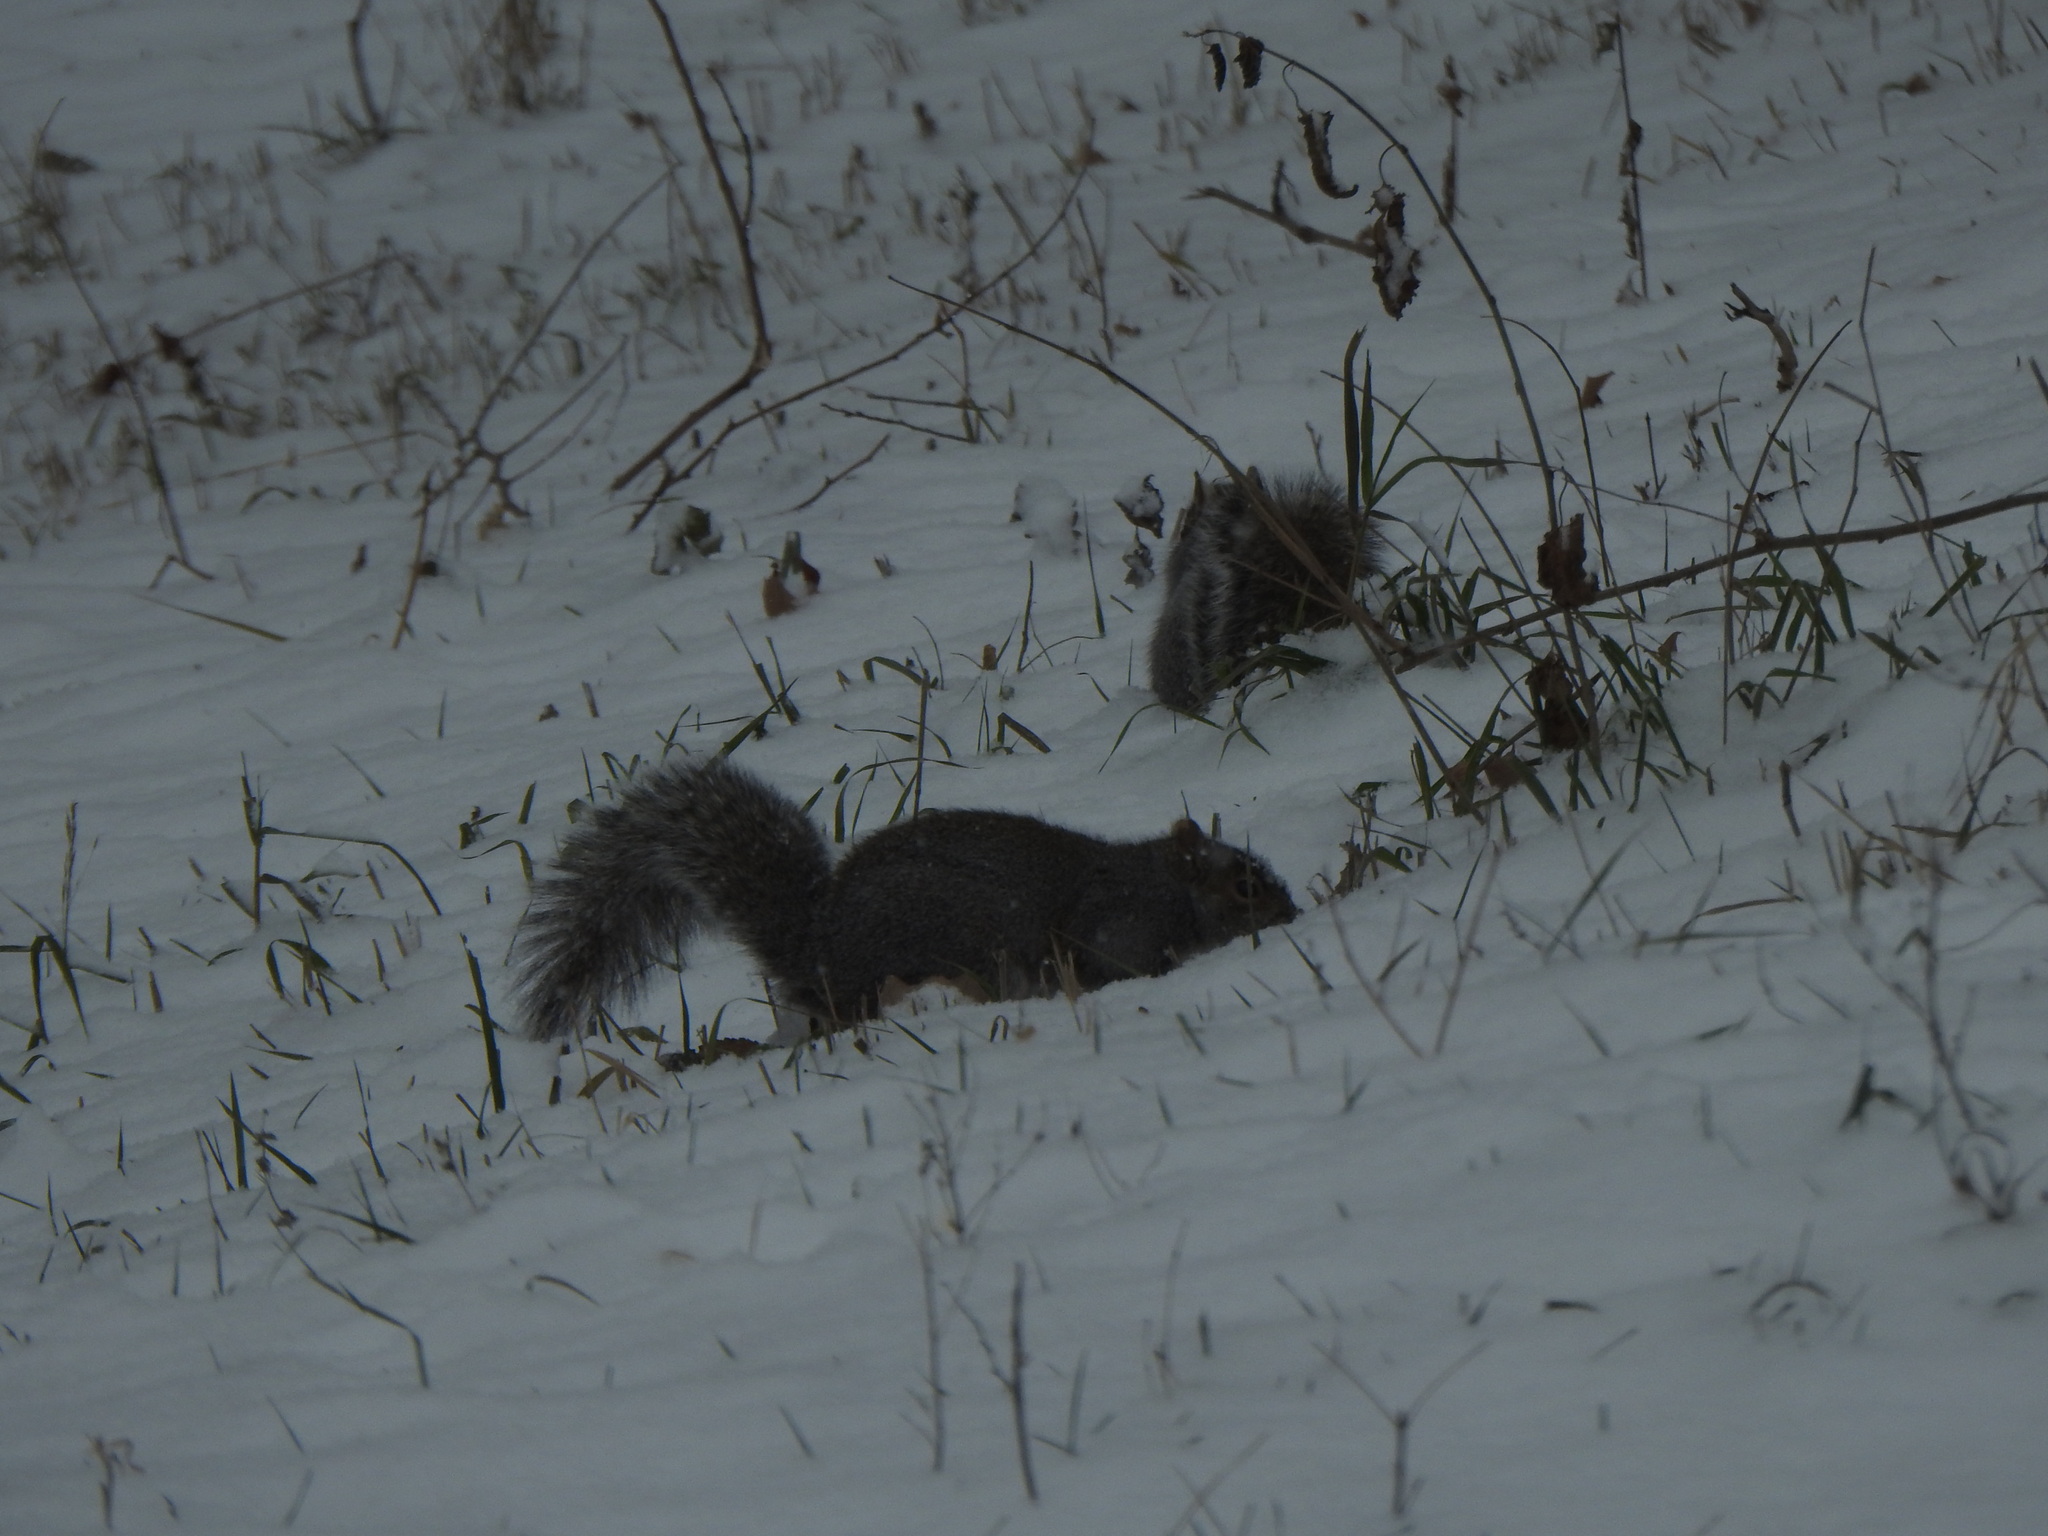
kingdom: Animalia
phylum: Chordata
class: Mammalia
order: Rodentia
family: Sciuridae
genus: Sciurus
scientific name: Sciurus carolinensis
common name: Eastern gray squirrel
